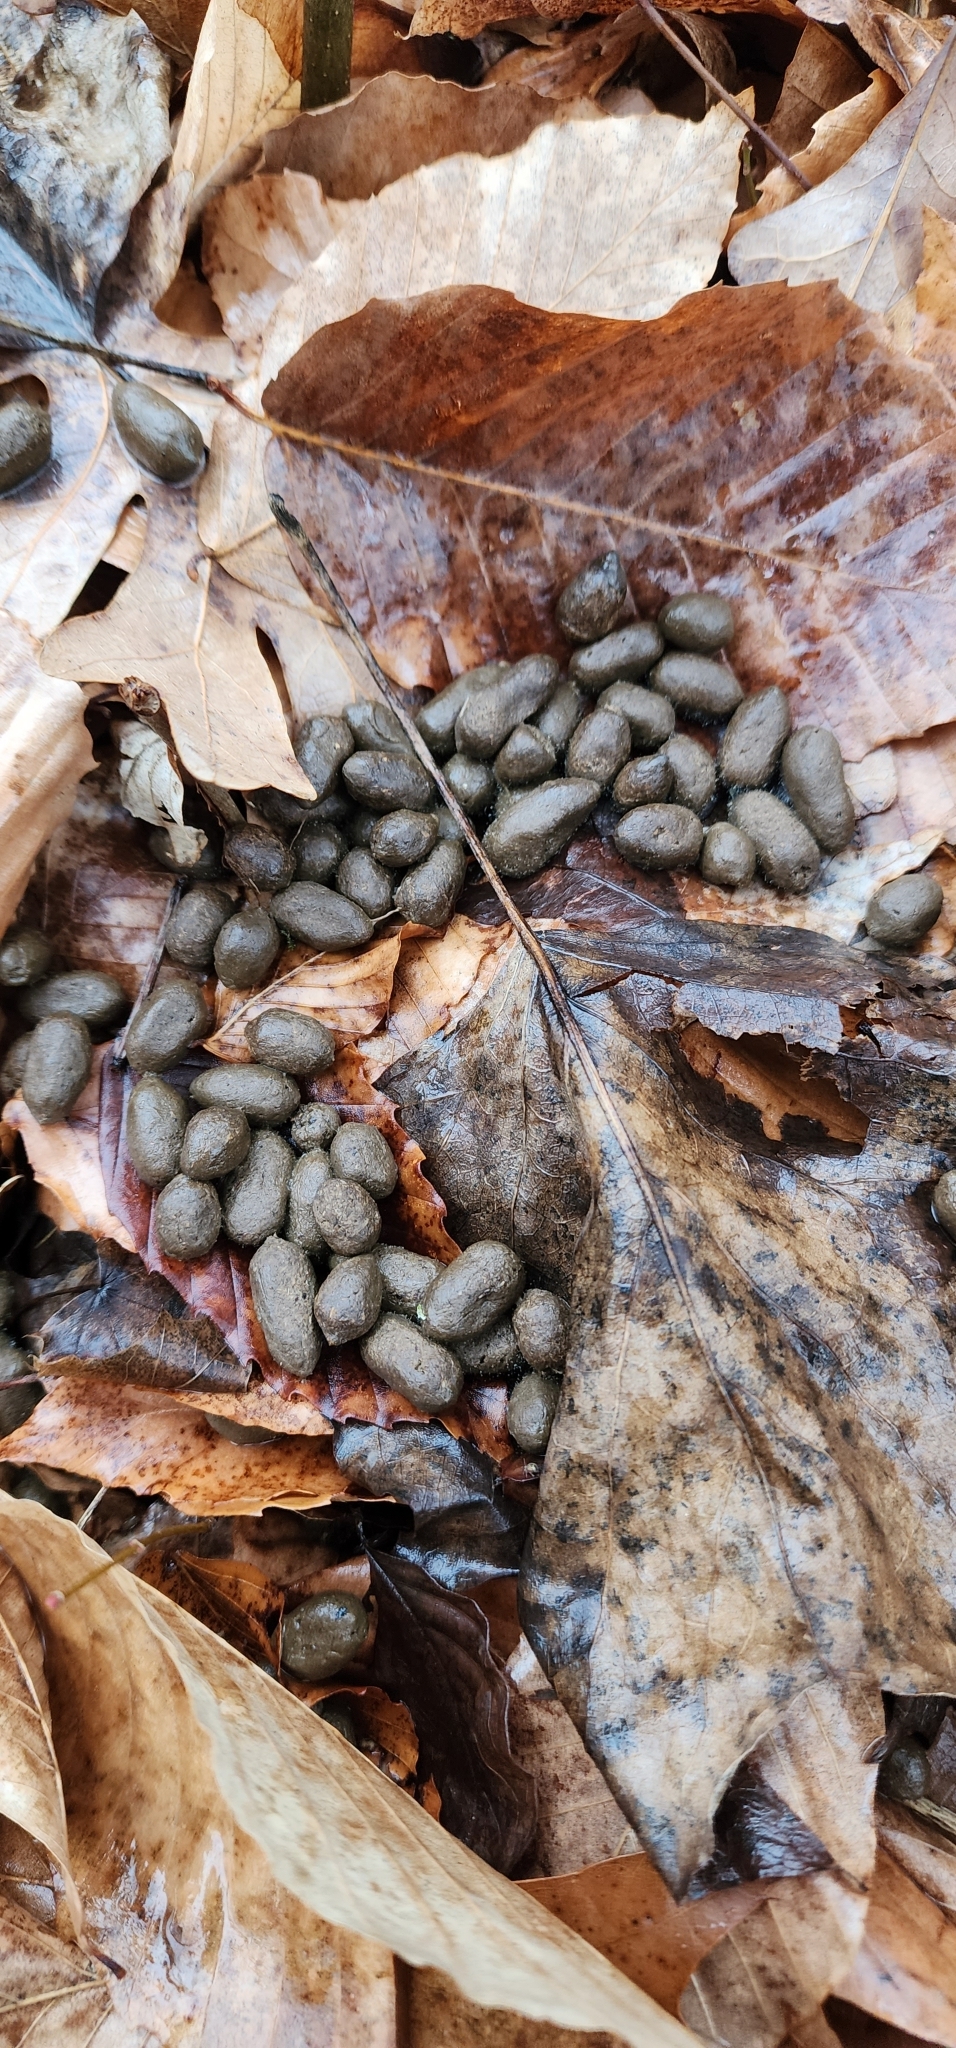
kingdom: Animalia
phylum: Chordata
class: Mammalia
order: Artiodactyla
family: Cervidae
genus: Odocoileus
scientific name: Odocoileus virginianus
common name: White-tailed deer
